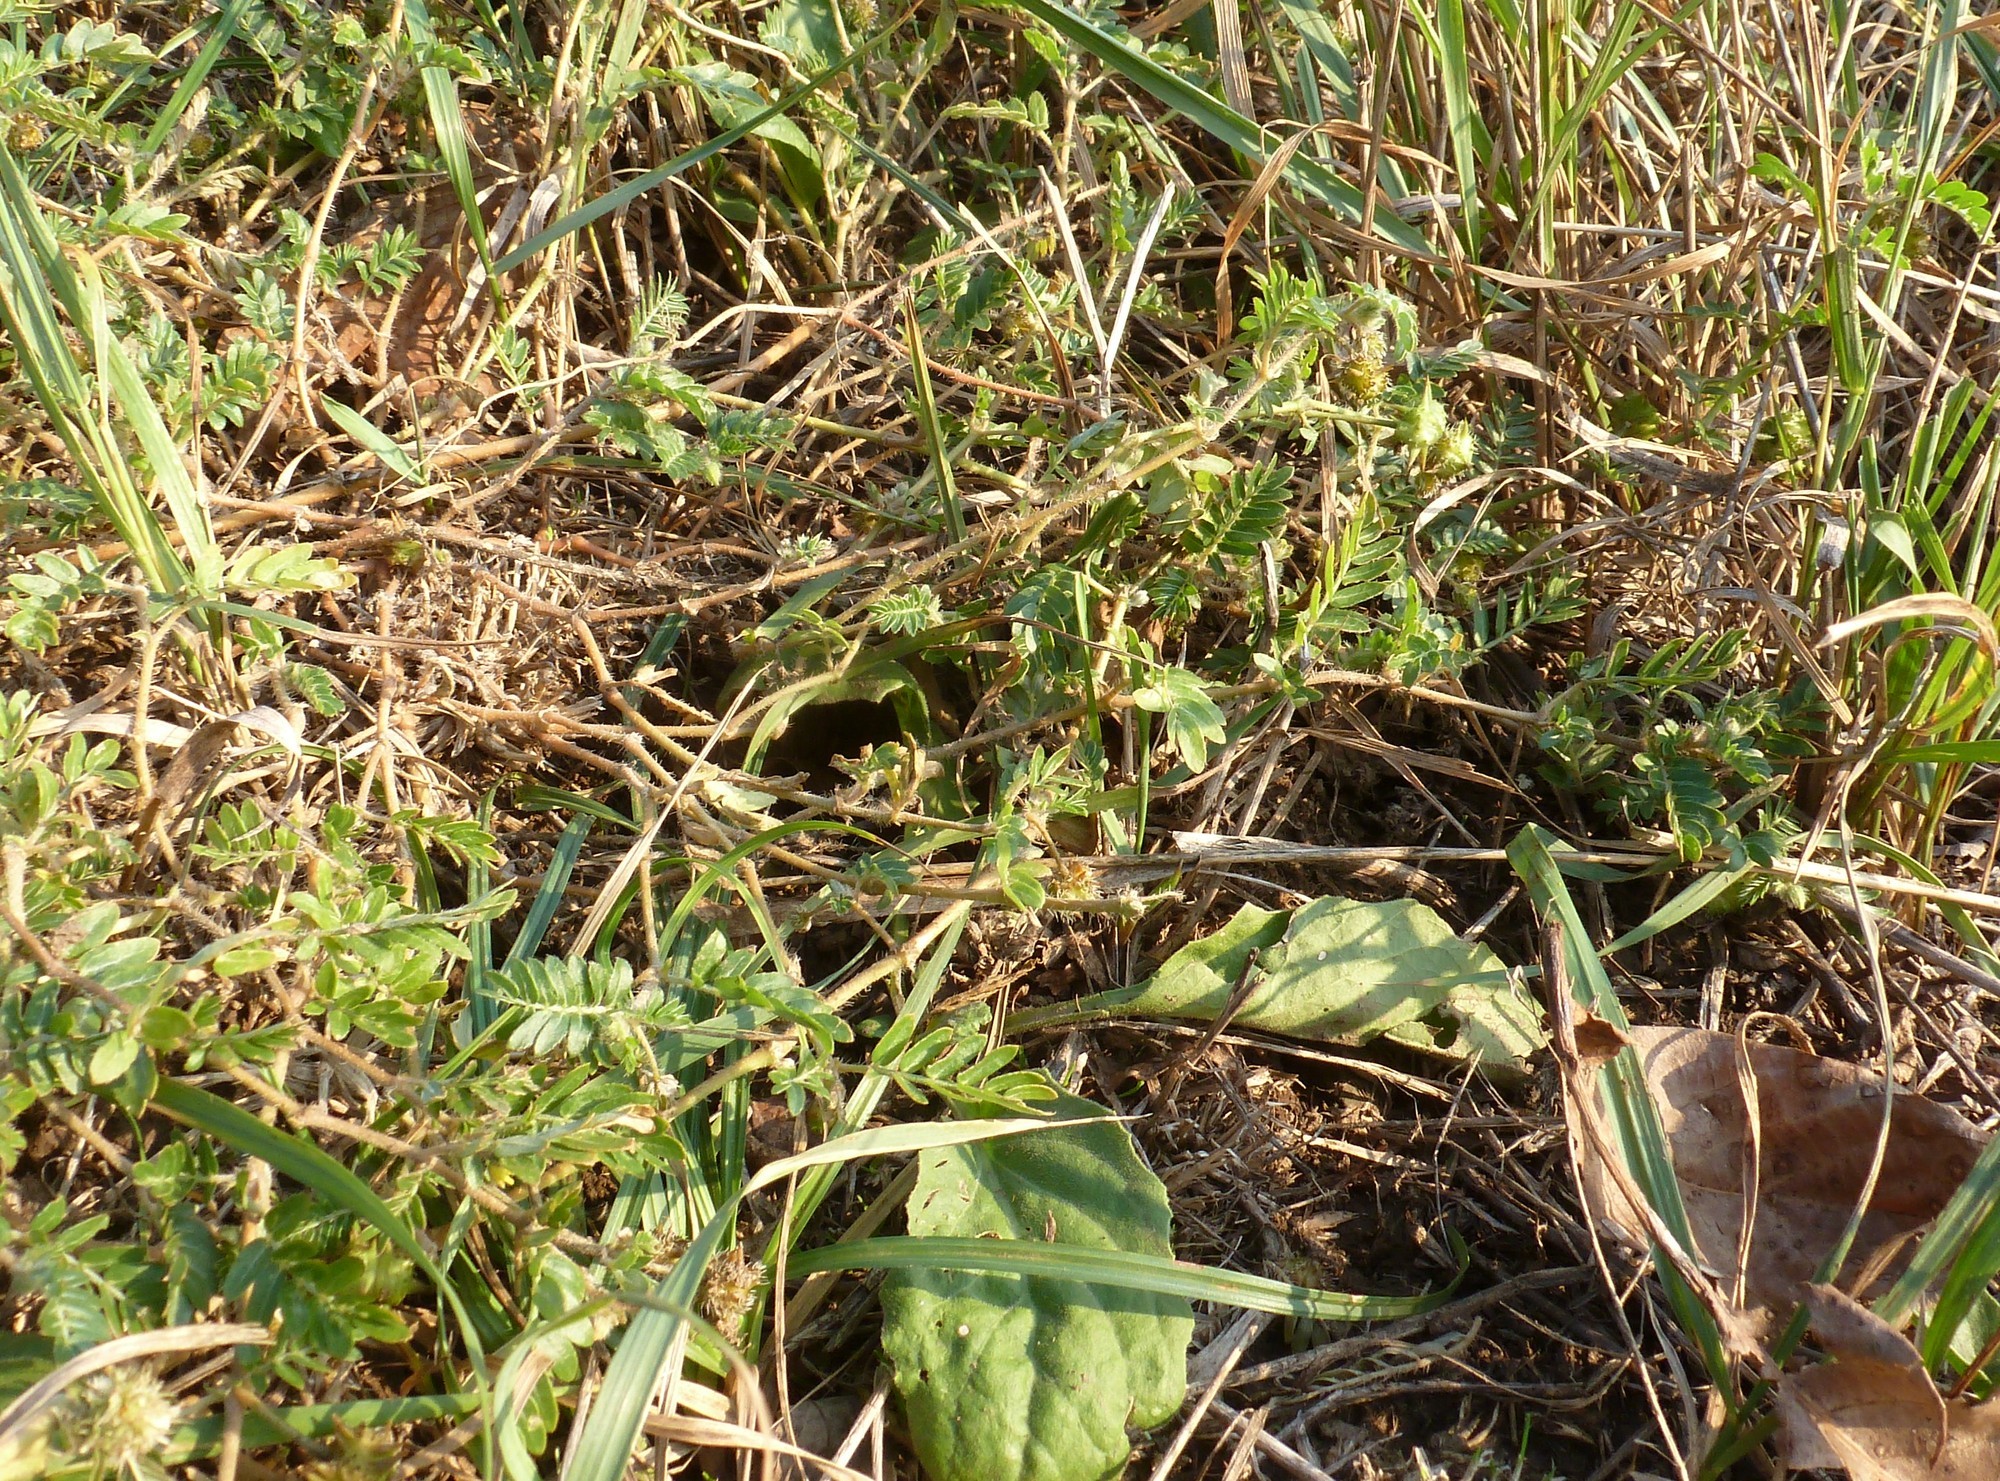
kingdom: Plantae
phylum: Tracheophyta
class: Magnoliopsida
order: Zygophyllales
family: Zygophyllaceae
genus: Tribulus
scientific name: Tribulus terrestris
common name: Puncturevine
